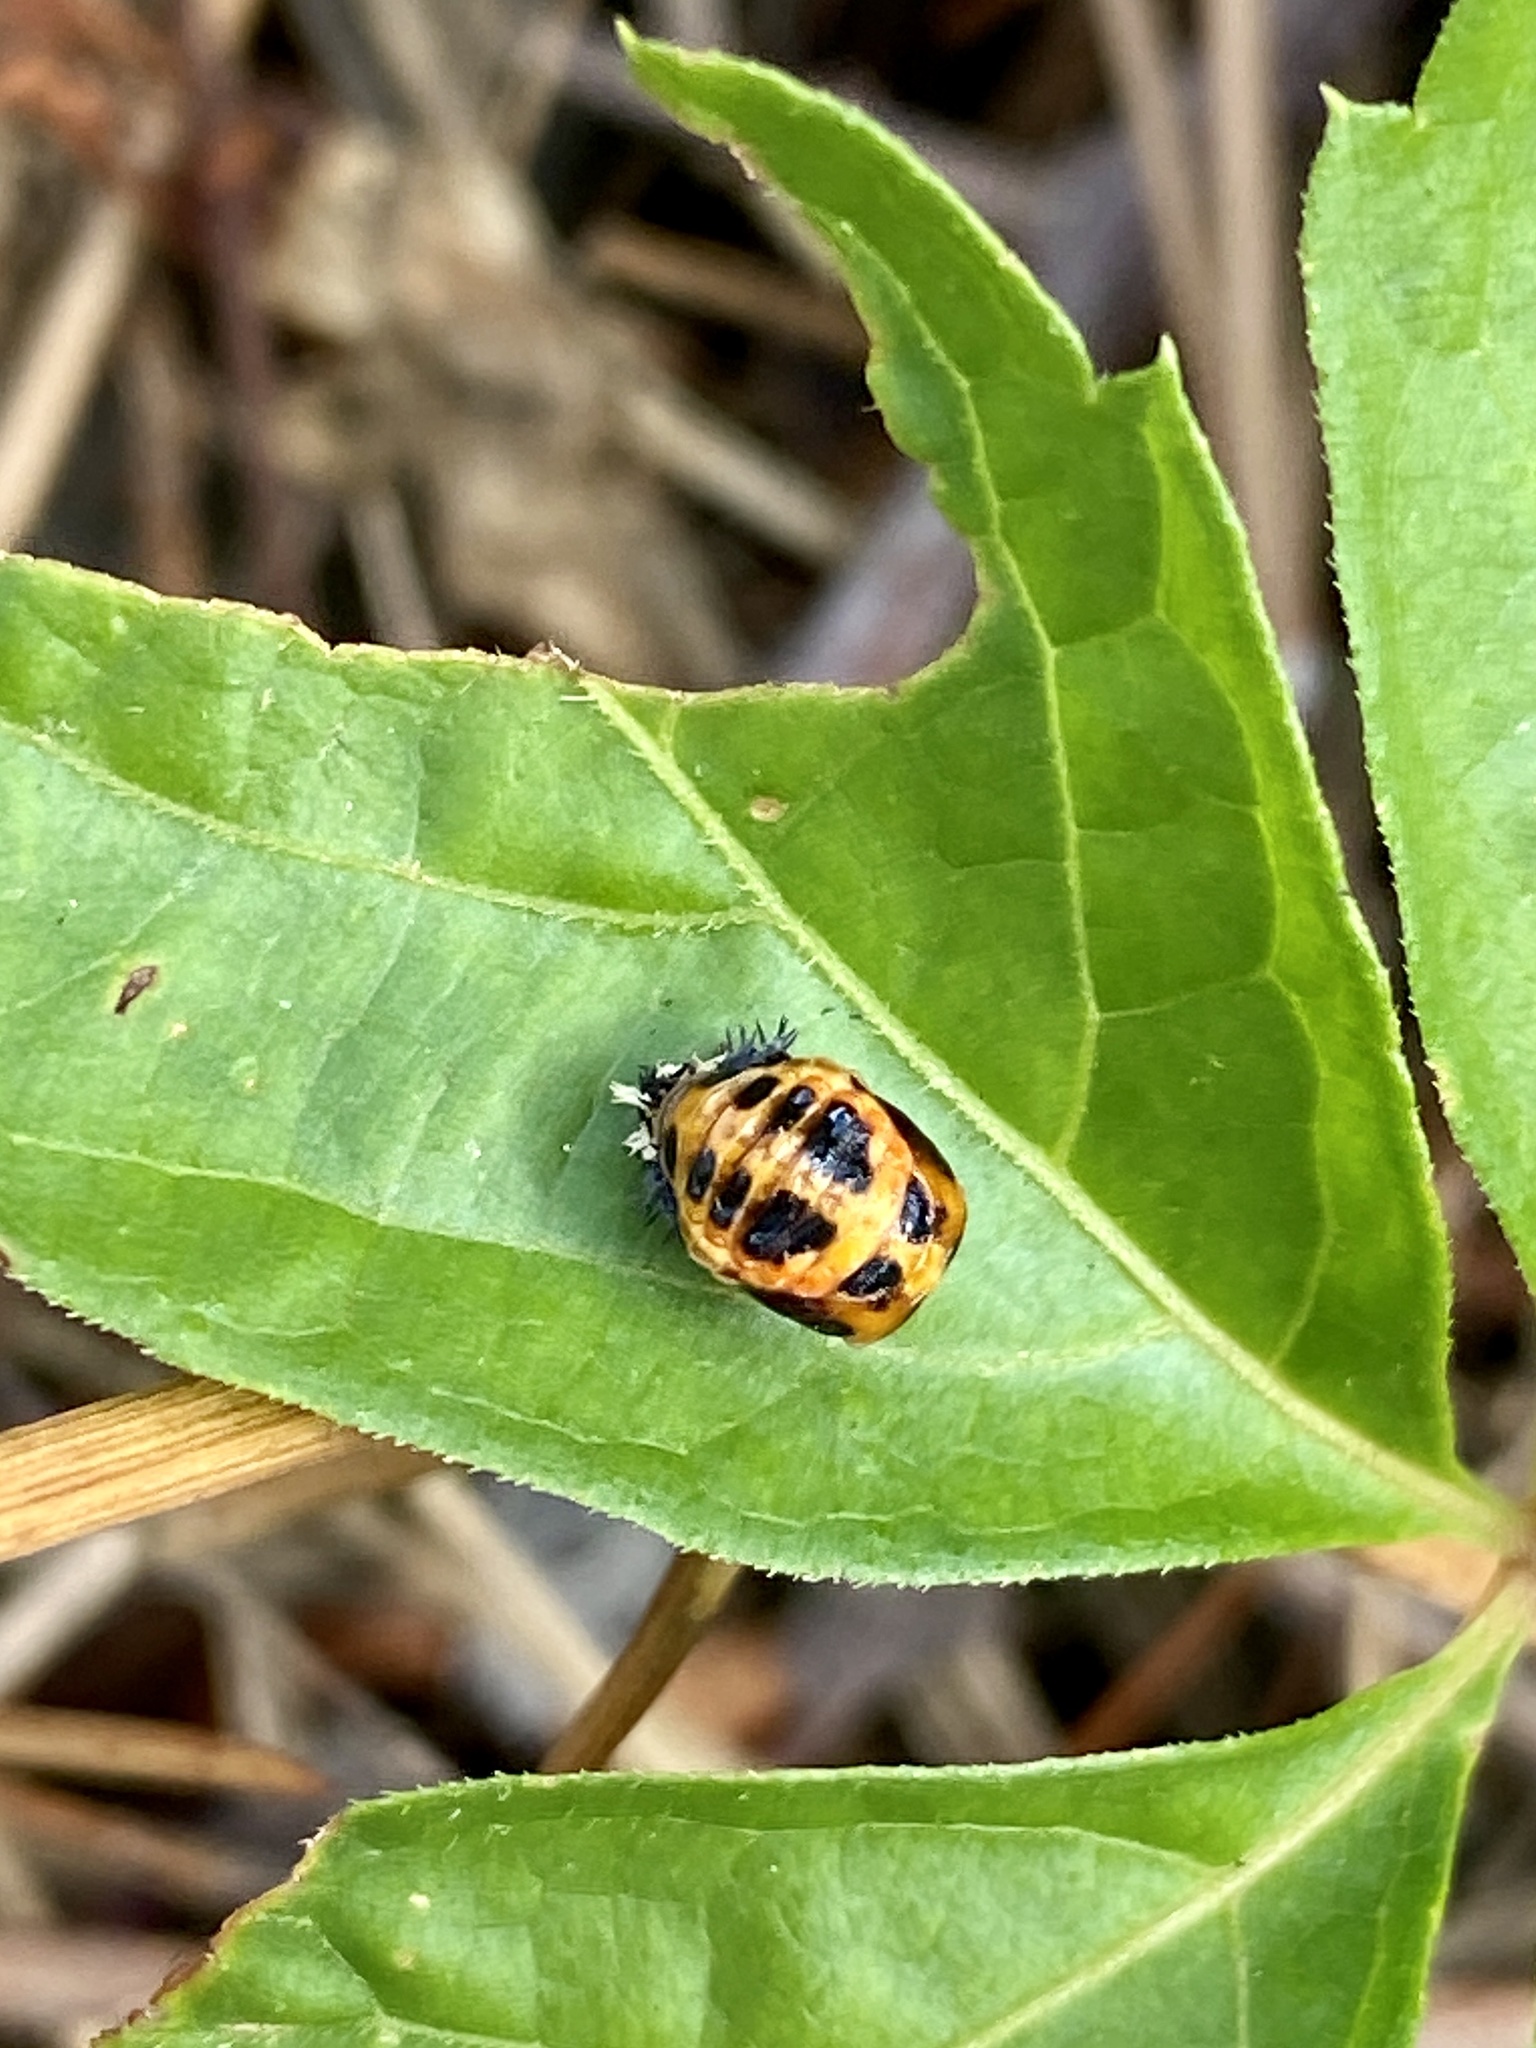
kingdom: Animalia
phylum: Arthropoda
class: Insecta
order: Coleoptera
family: Coccinellidae
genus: Harmonia
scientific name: Harmonia axyridis
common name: Harlequin ladybird
